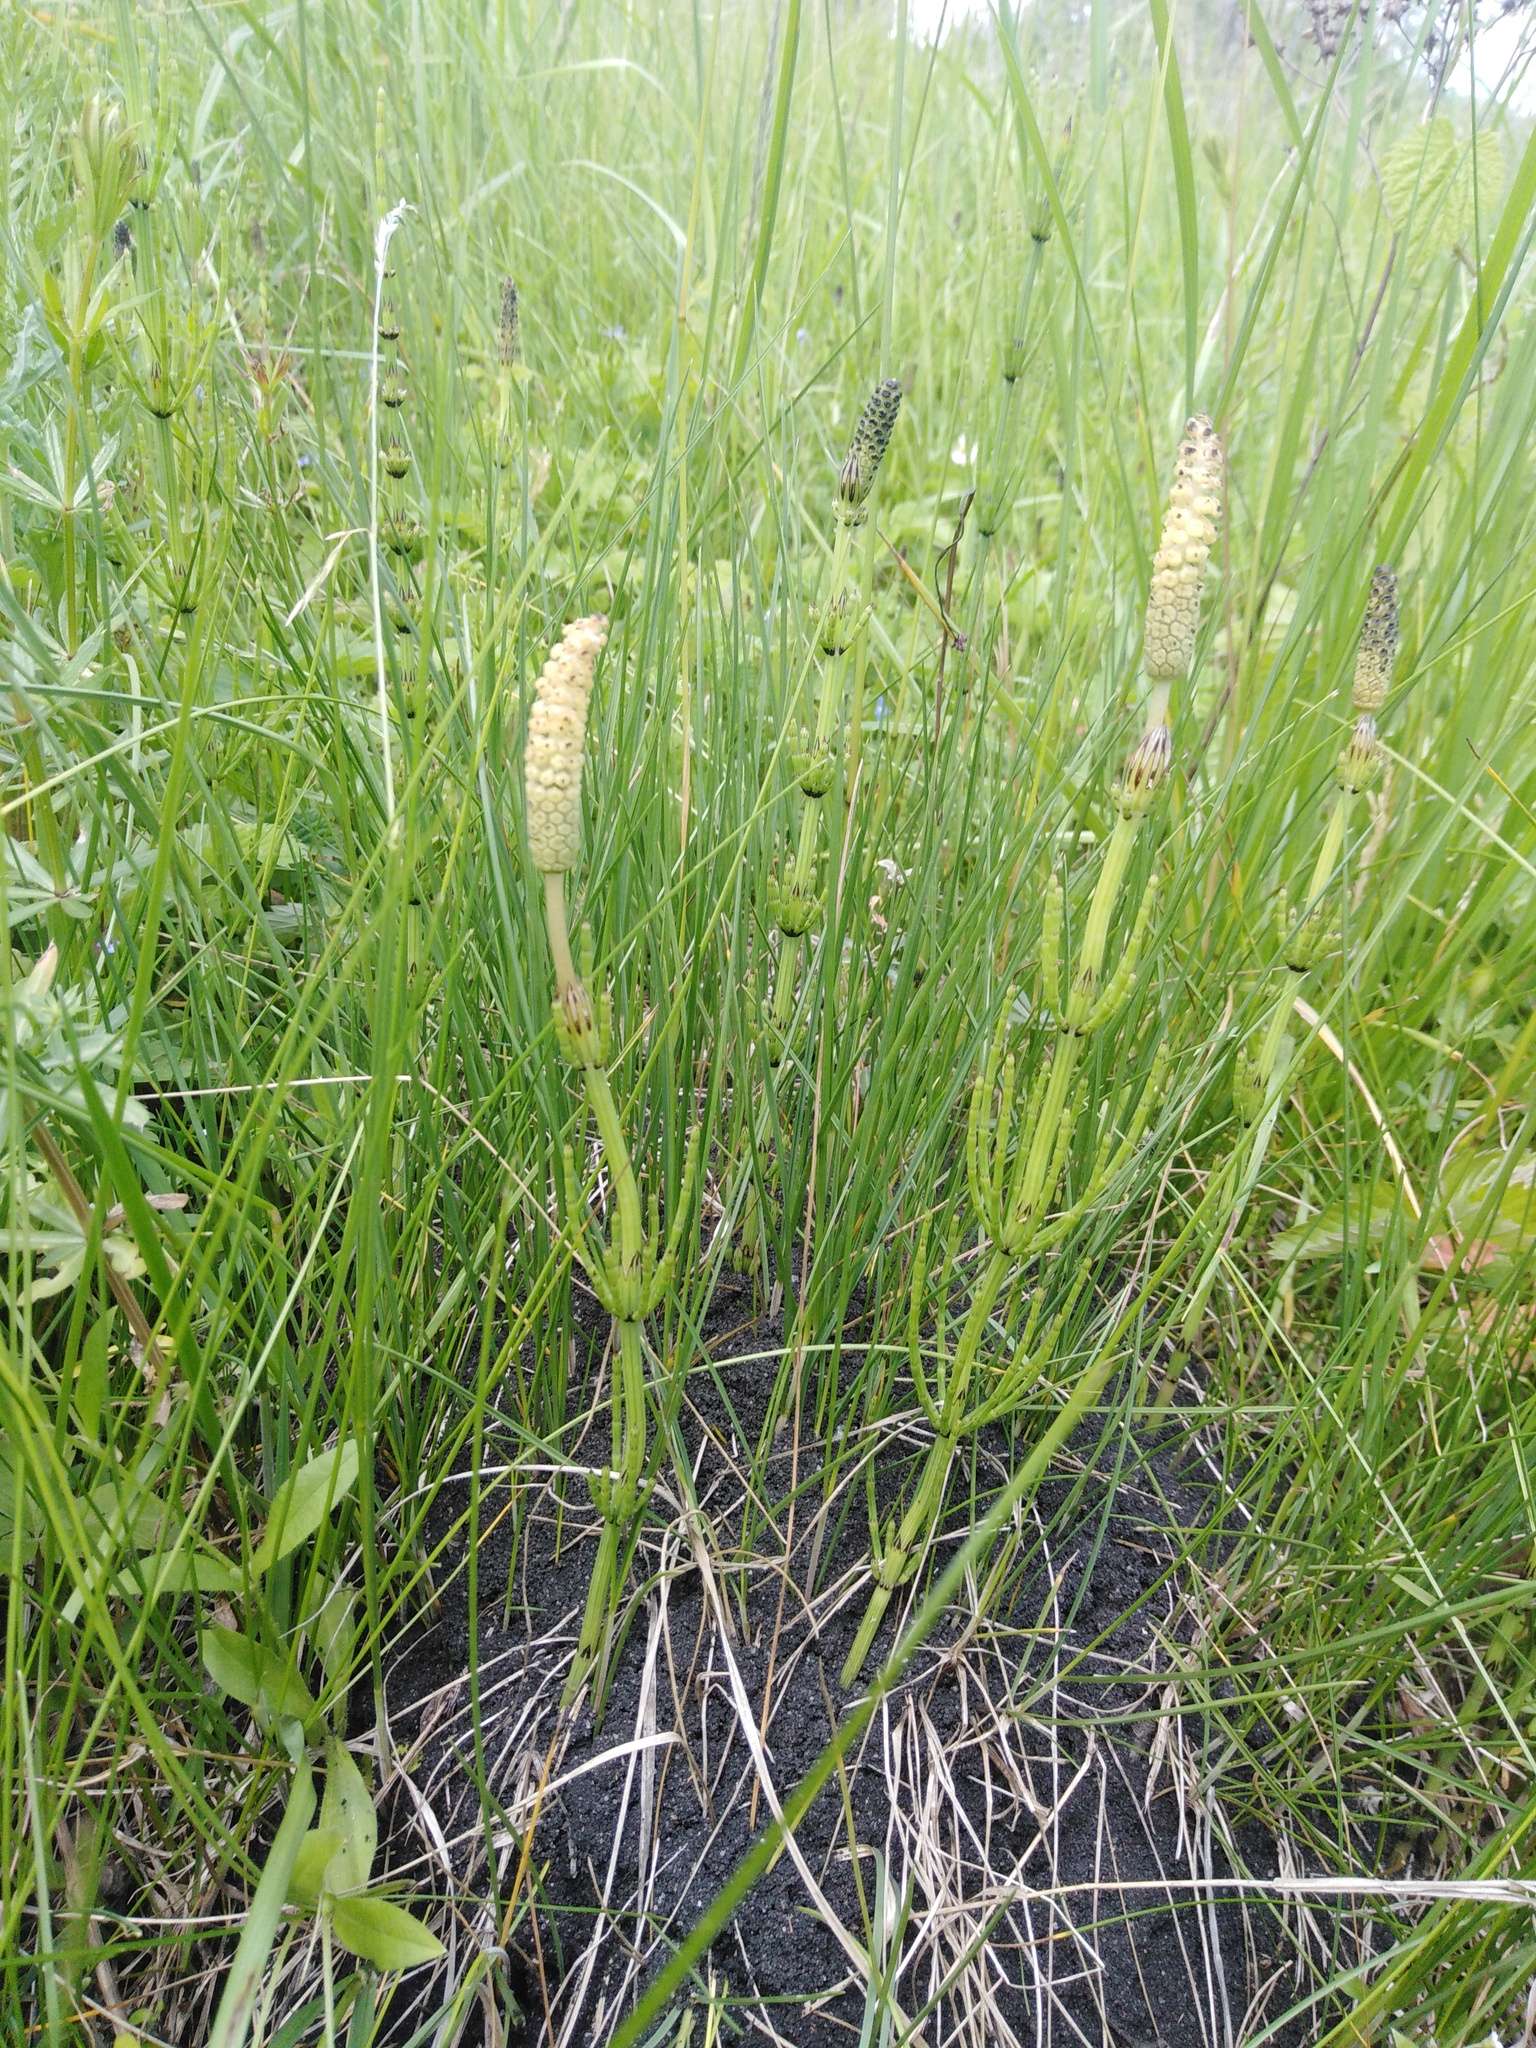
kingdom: Plantae
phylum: Tracheophyta
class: Polypodiopsida
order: Equisetales
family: Equisetaceae
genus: Equisetum
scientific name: Equisetum palustre
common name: Marsh horsetail
